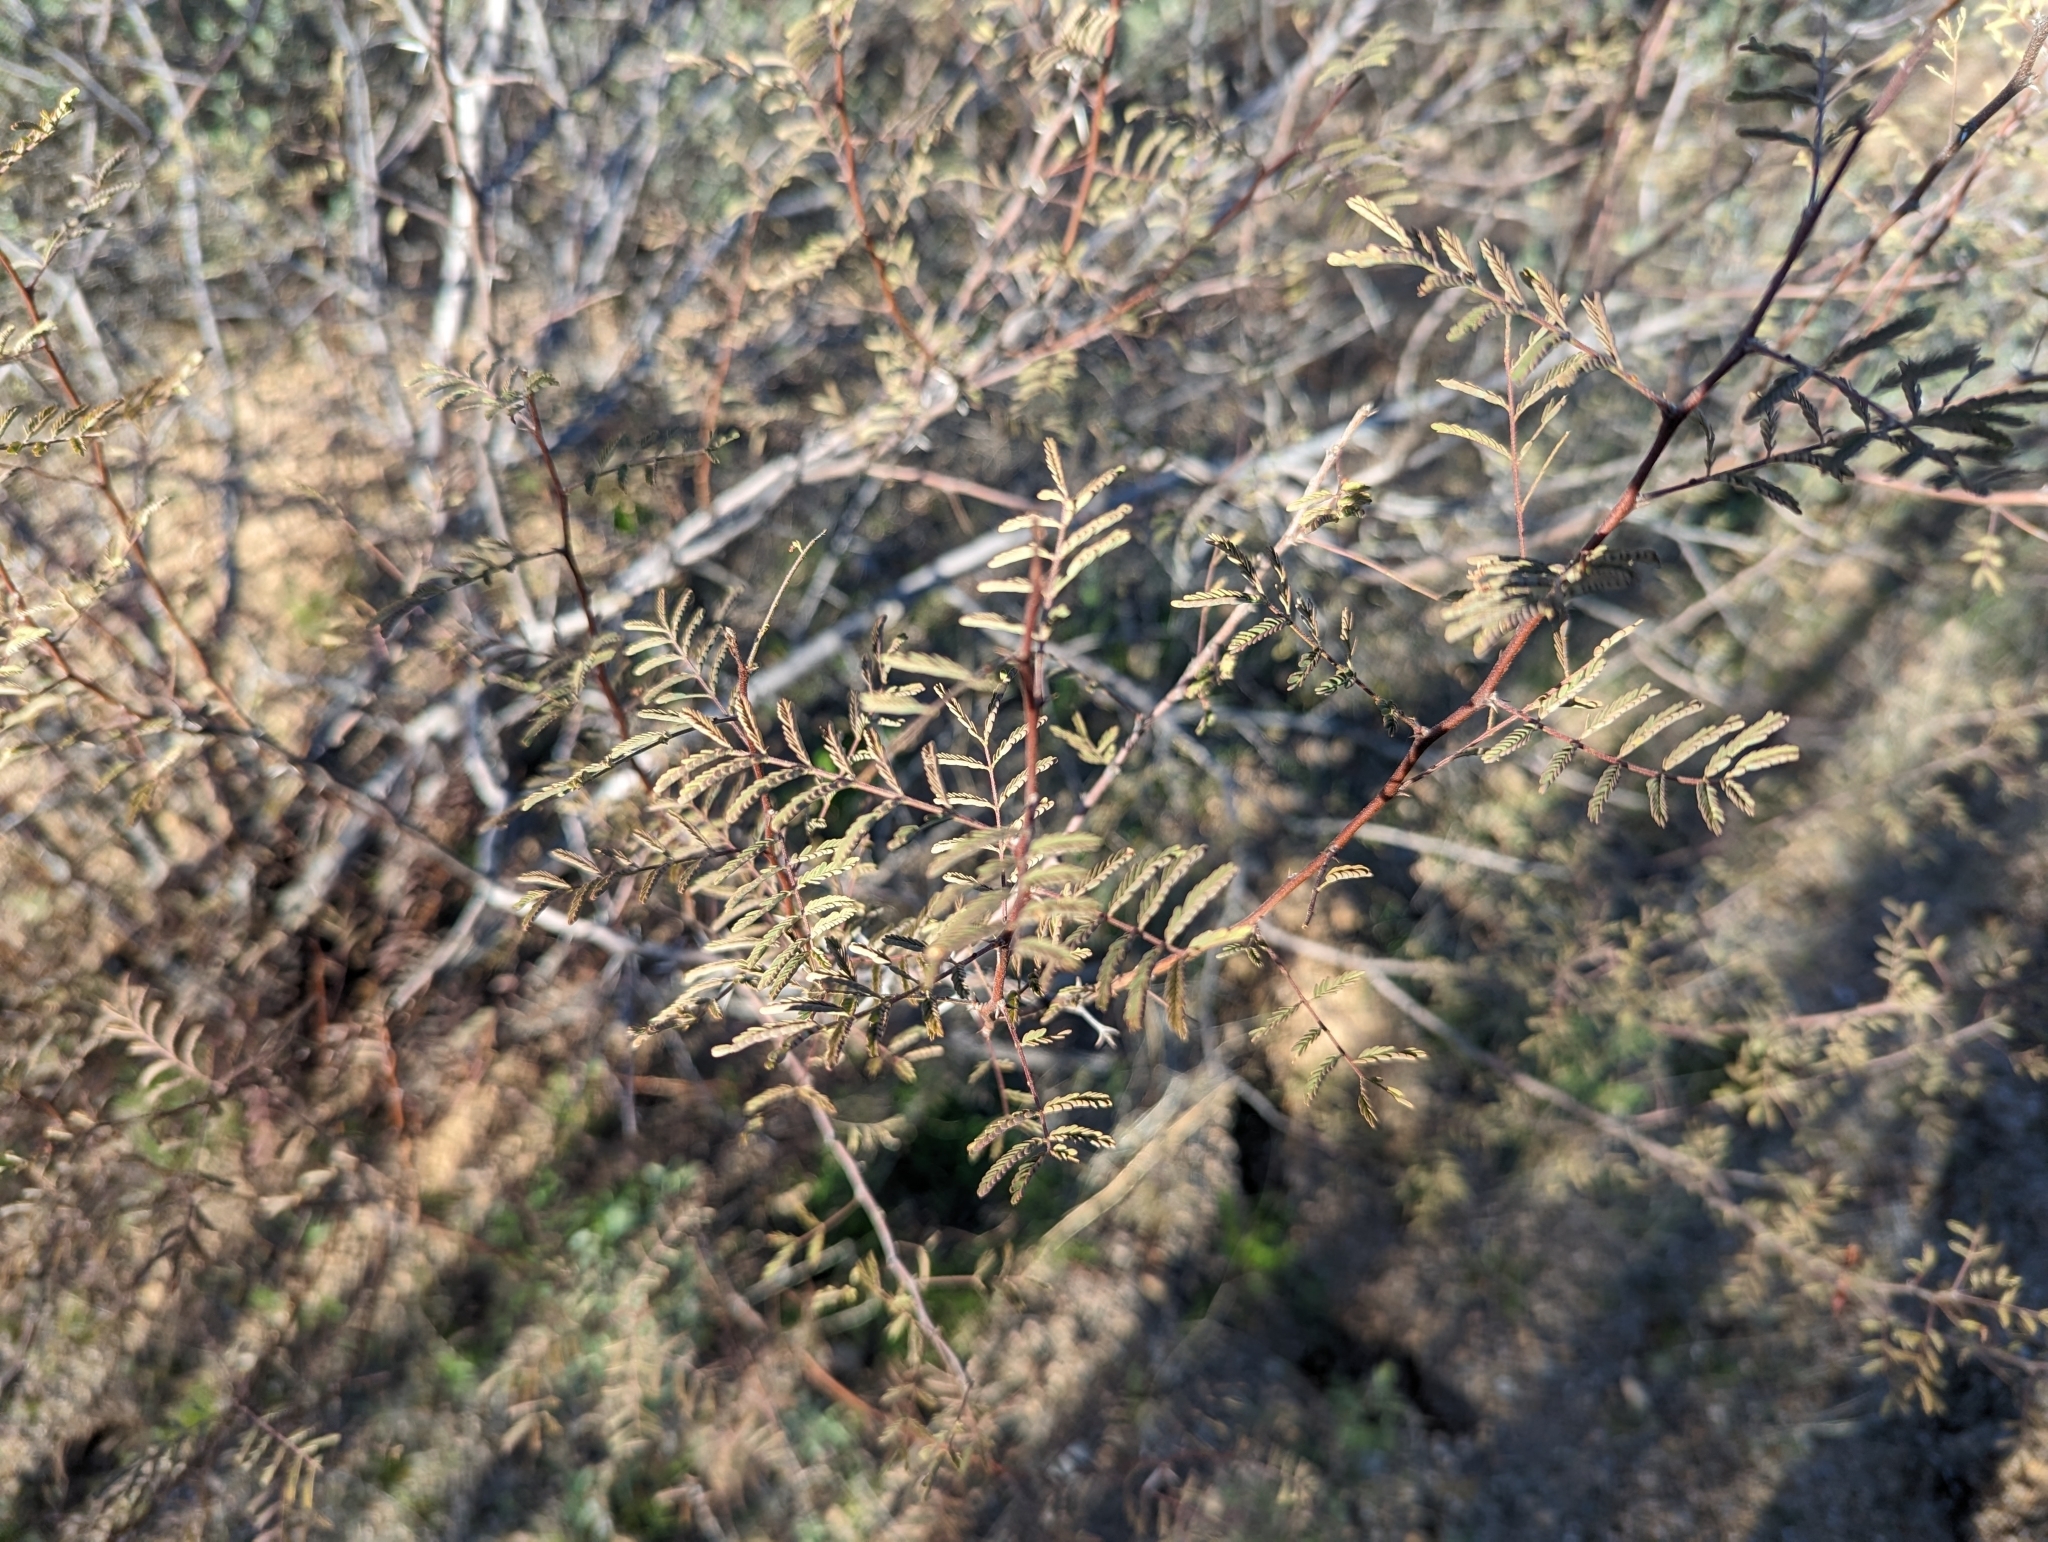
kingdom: Plantae
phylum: Tracheophyta
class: Magnoliopsida
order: Fabales
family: Fabaceae
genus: Vachellia
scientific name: Vachellia constricta
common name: Mescat acacia
